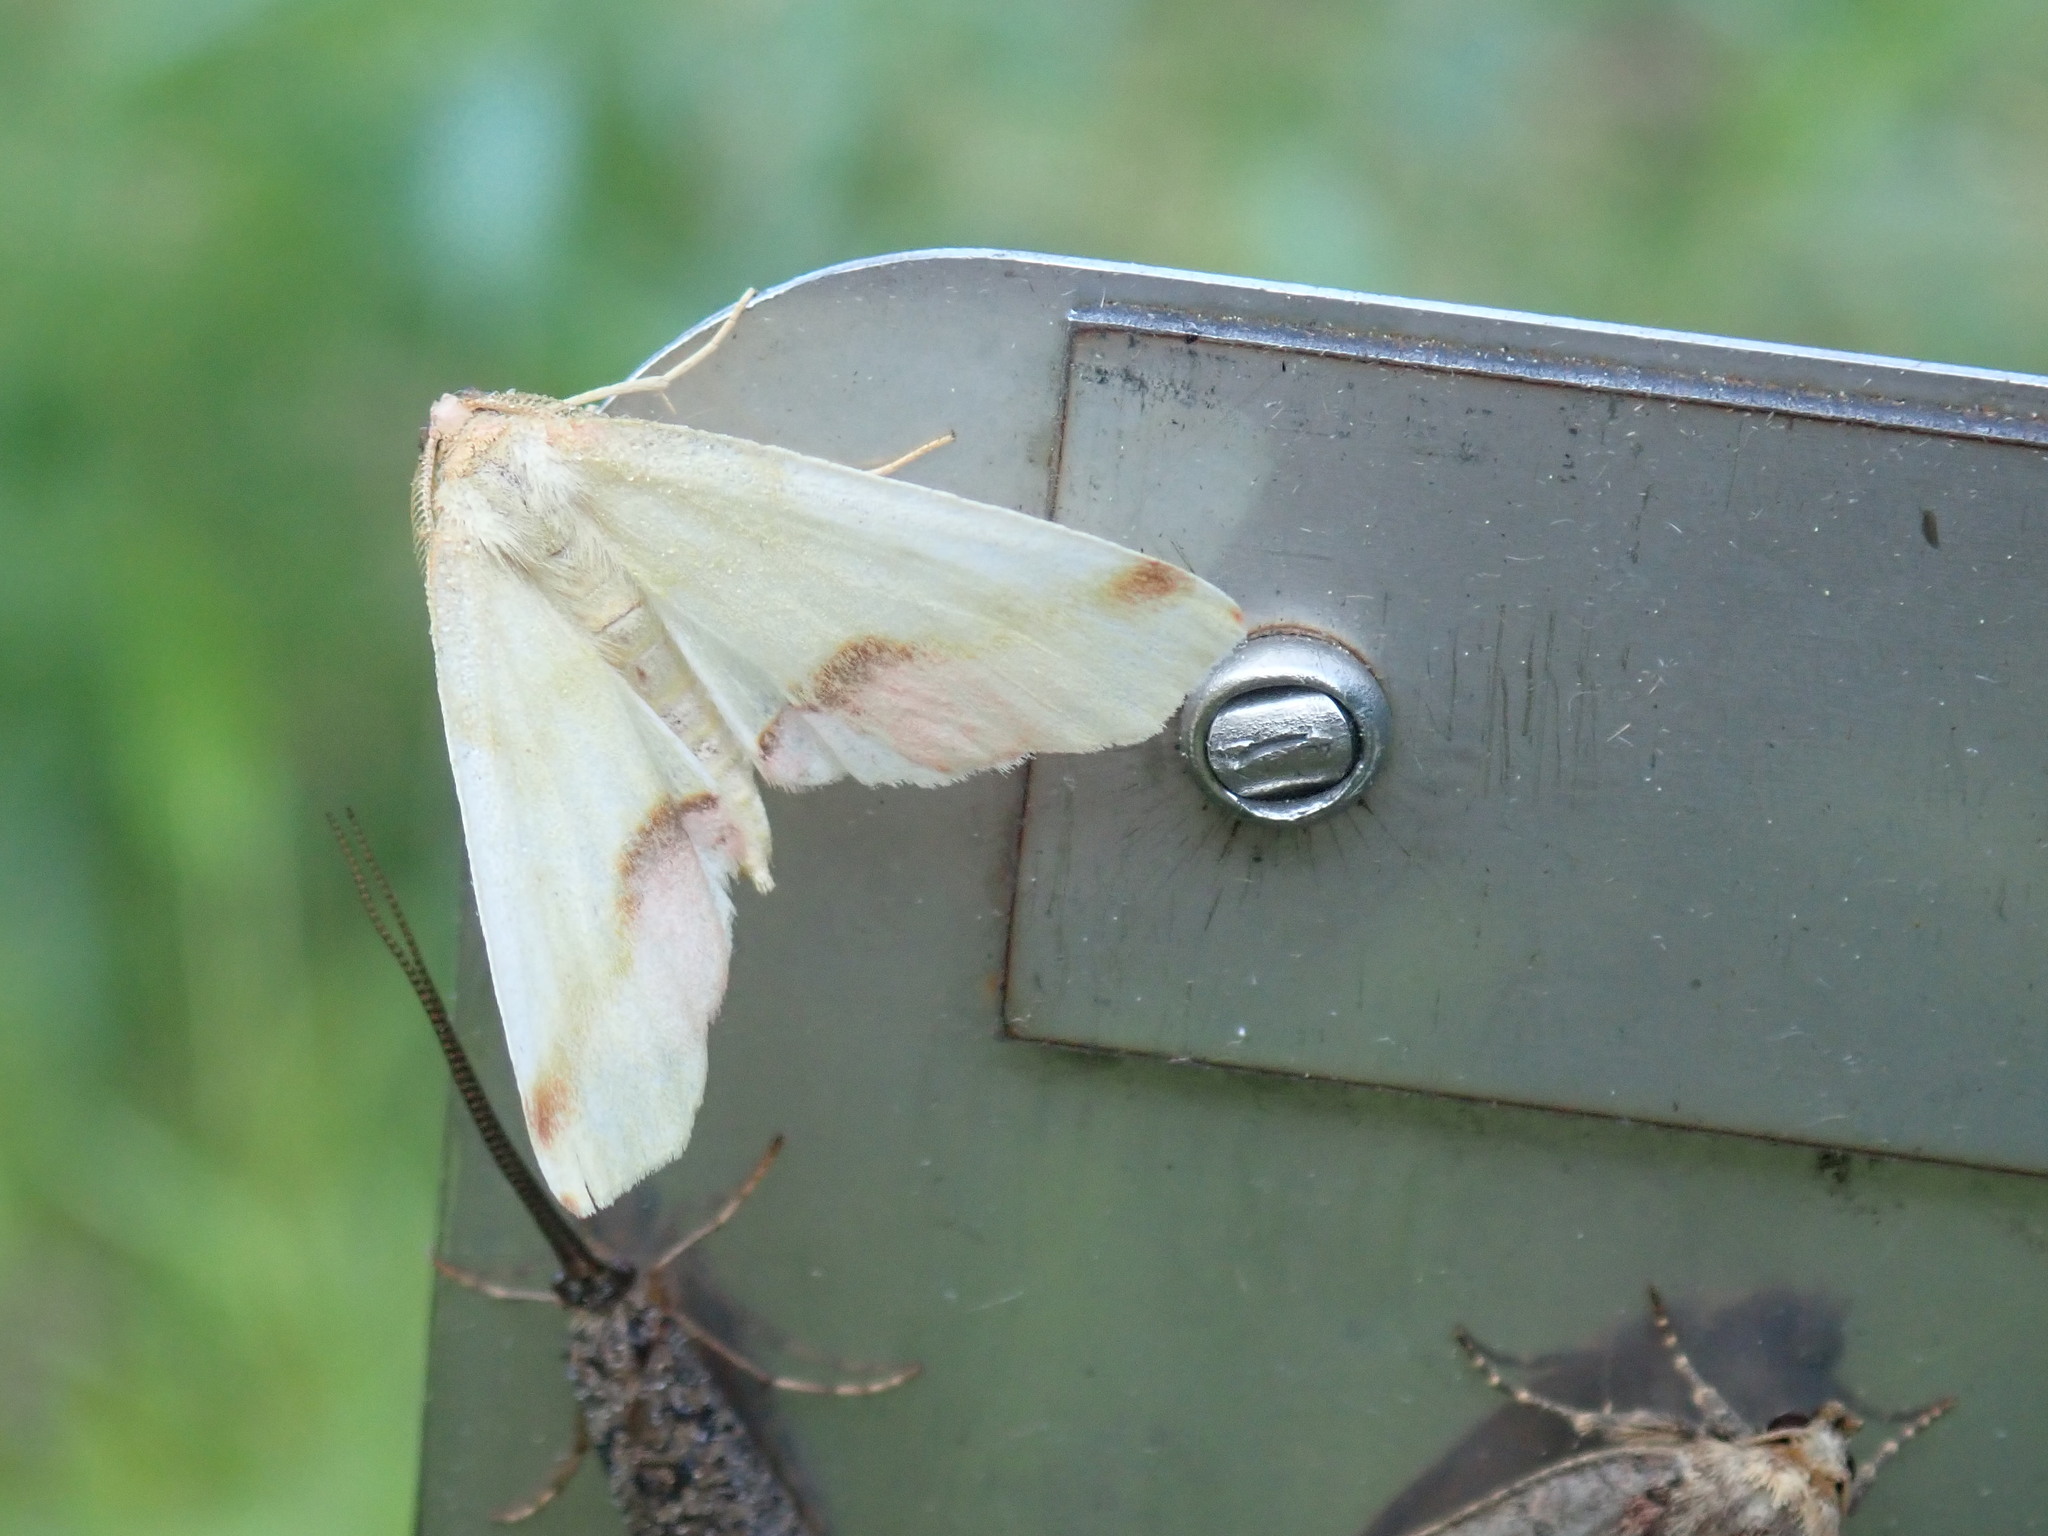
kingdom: Animalia
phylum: Arthropoda
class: Insecta
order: Lepidoptera
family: Geometridae
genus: Plagodis
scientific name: Plagodis serinaria
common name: Lemon plagodis
